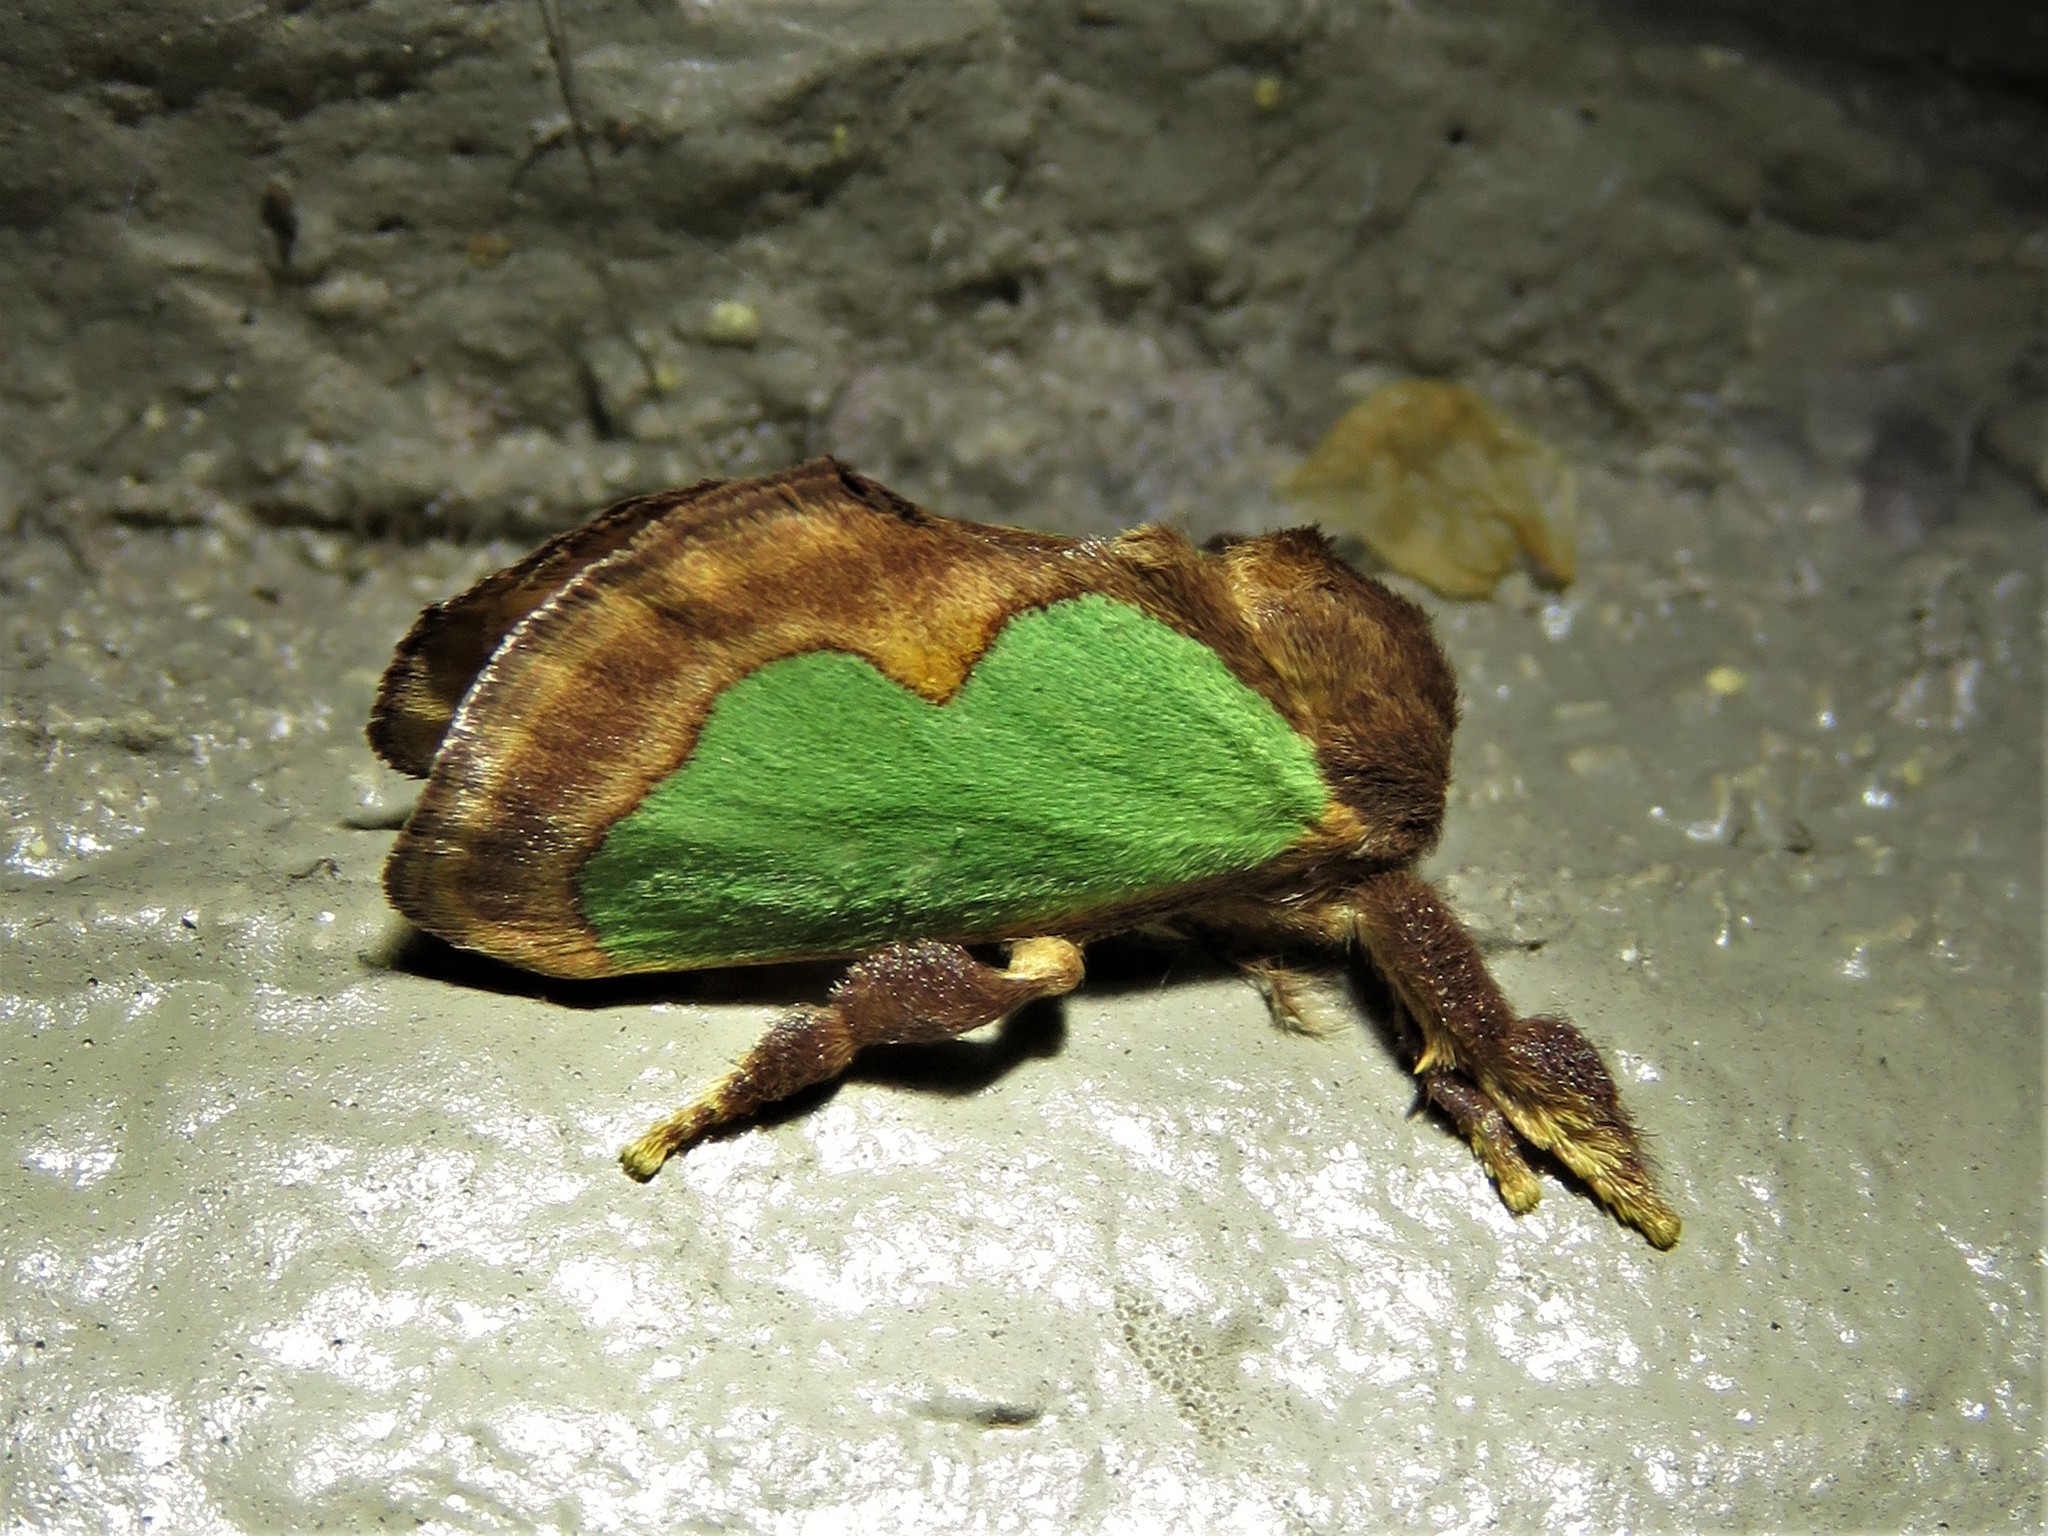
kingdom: Animalia
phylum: Arthropoda
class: Insecta
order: Lepidoptera
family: Limacodidae
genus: Euclea
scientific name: Euclea incisa
